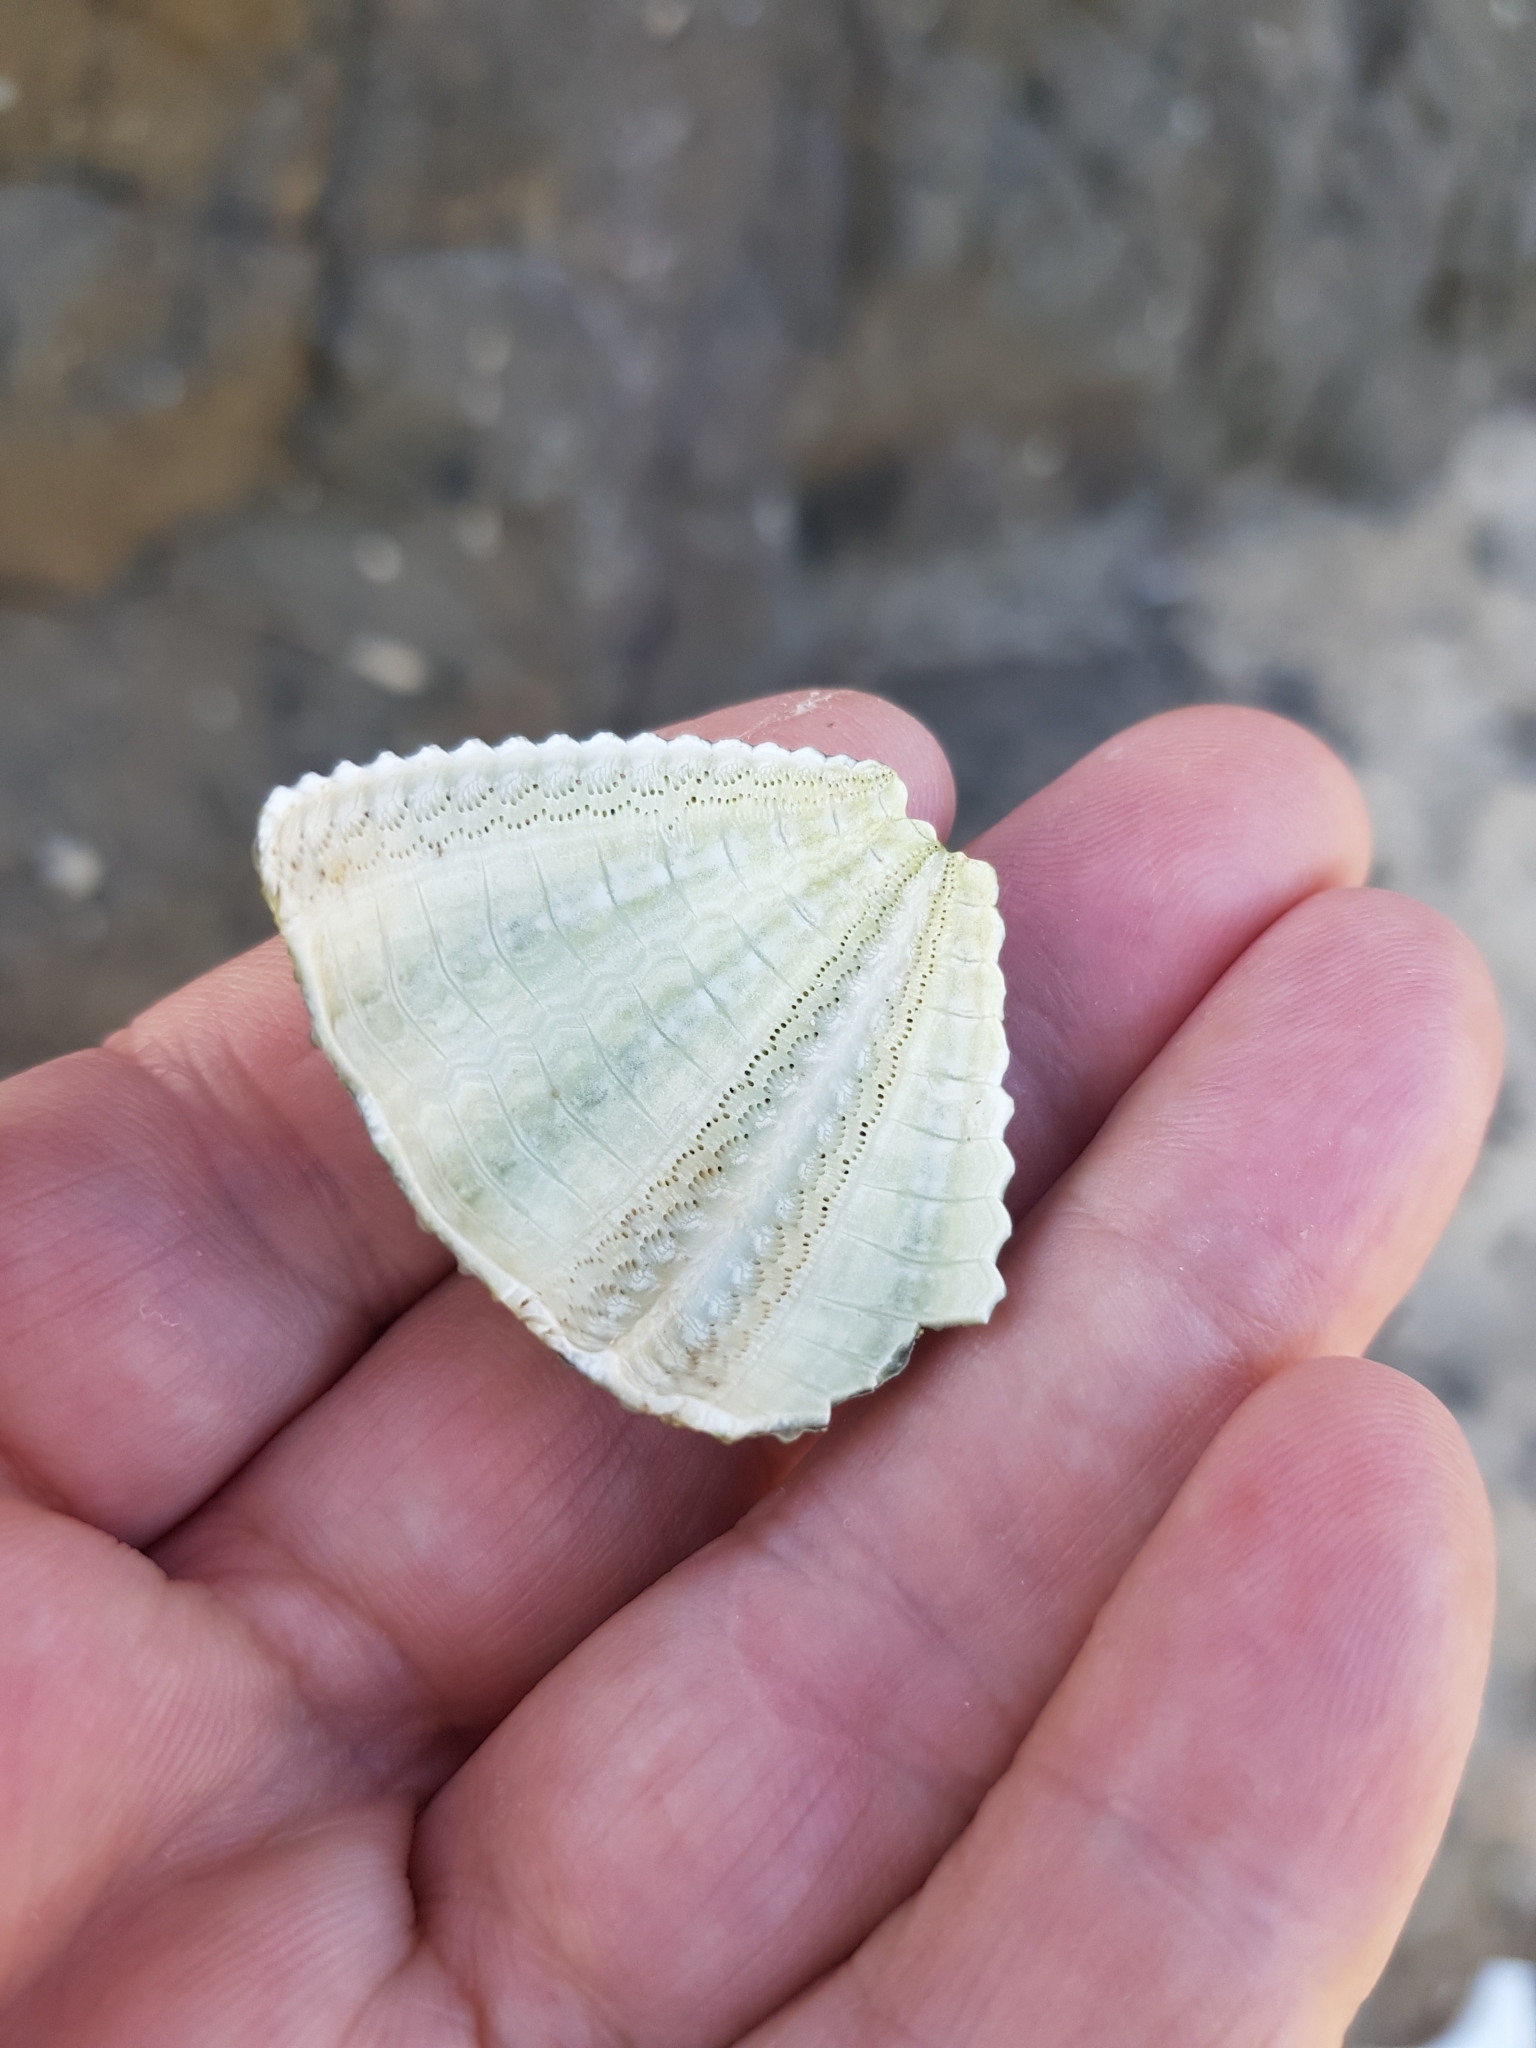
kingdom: Animalia
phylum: Echinodermata
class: Echinoidea
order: Camarodonta
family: Parechinidae
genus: Paracentrotus
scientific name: Paracentrotus lividus
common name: Purple sea urchin
